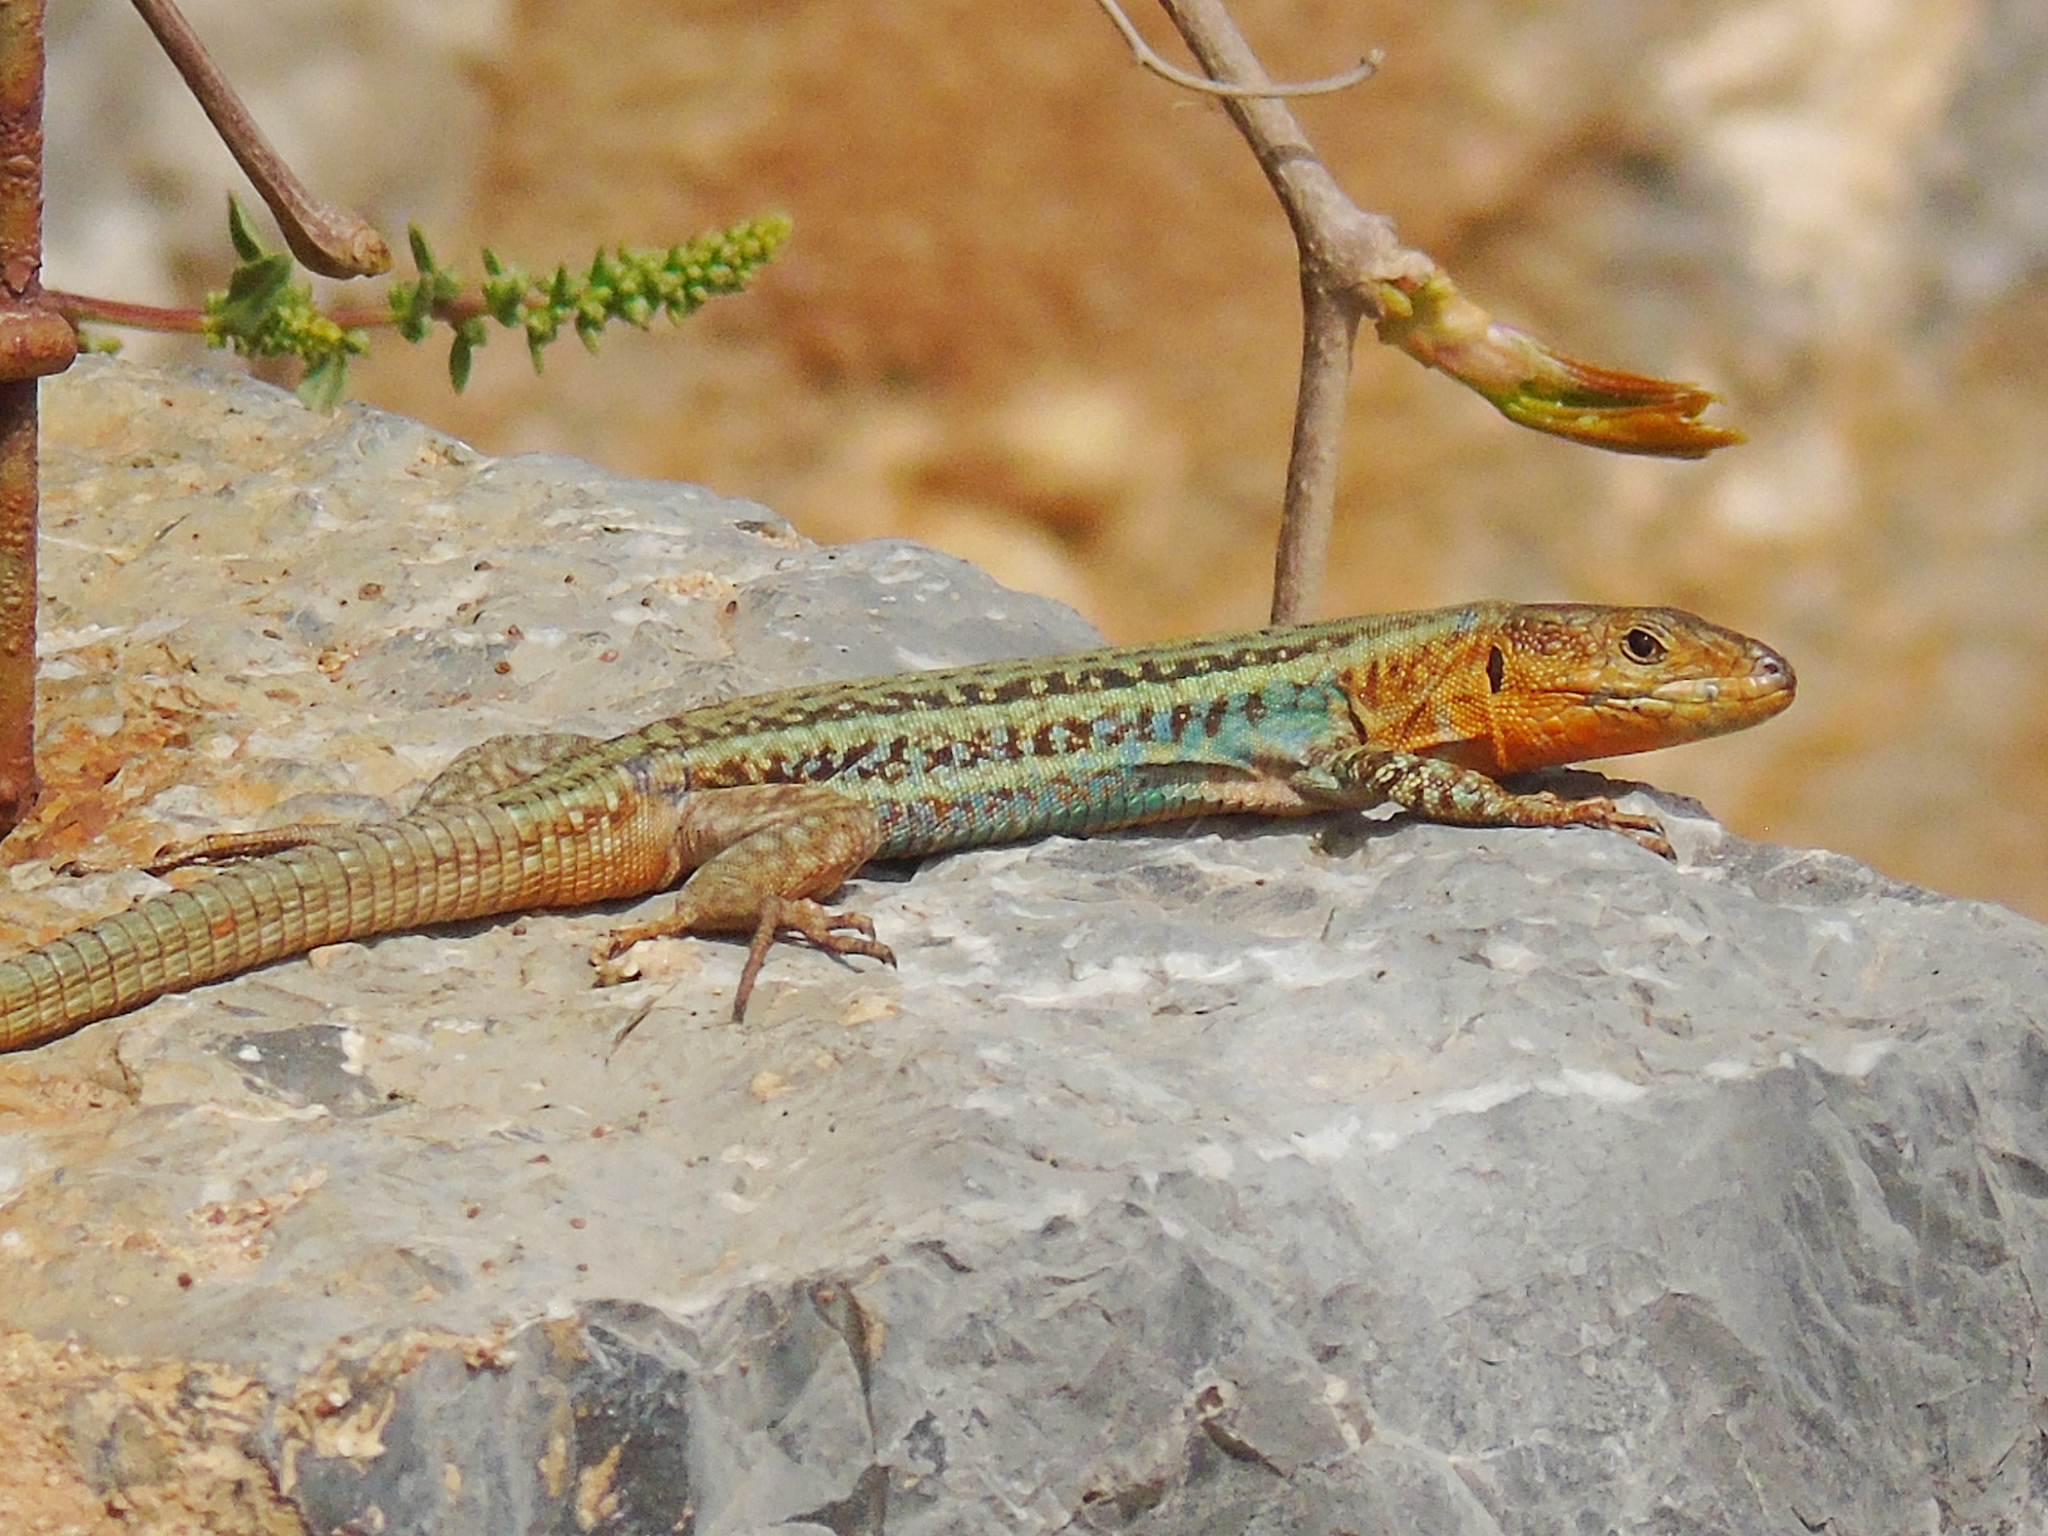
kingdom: Animalia
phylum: Chordata
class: Squamata
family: Lacertidae
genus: Podarcis
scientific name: Podarcis peloponnesiacus
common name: Peloponnese wall lizard
